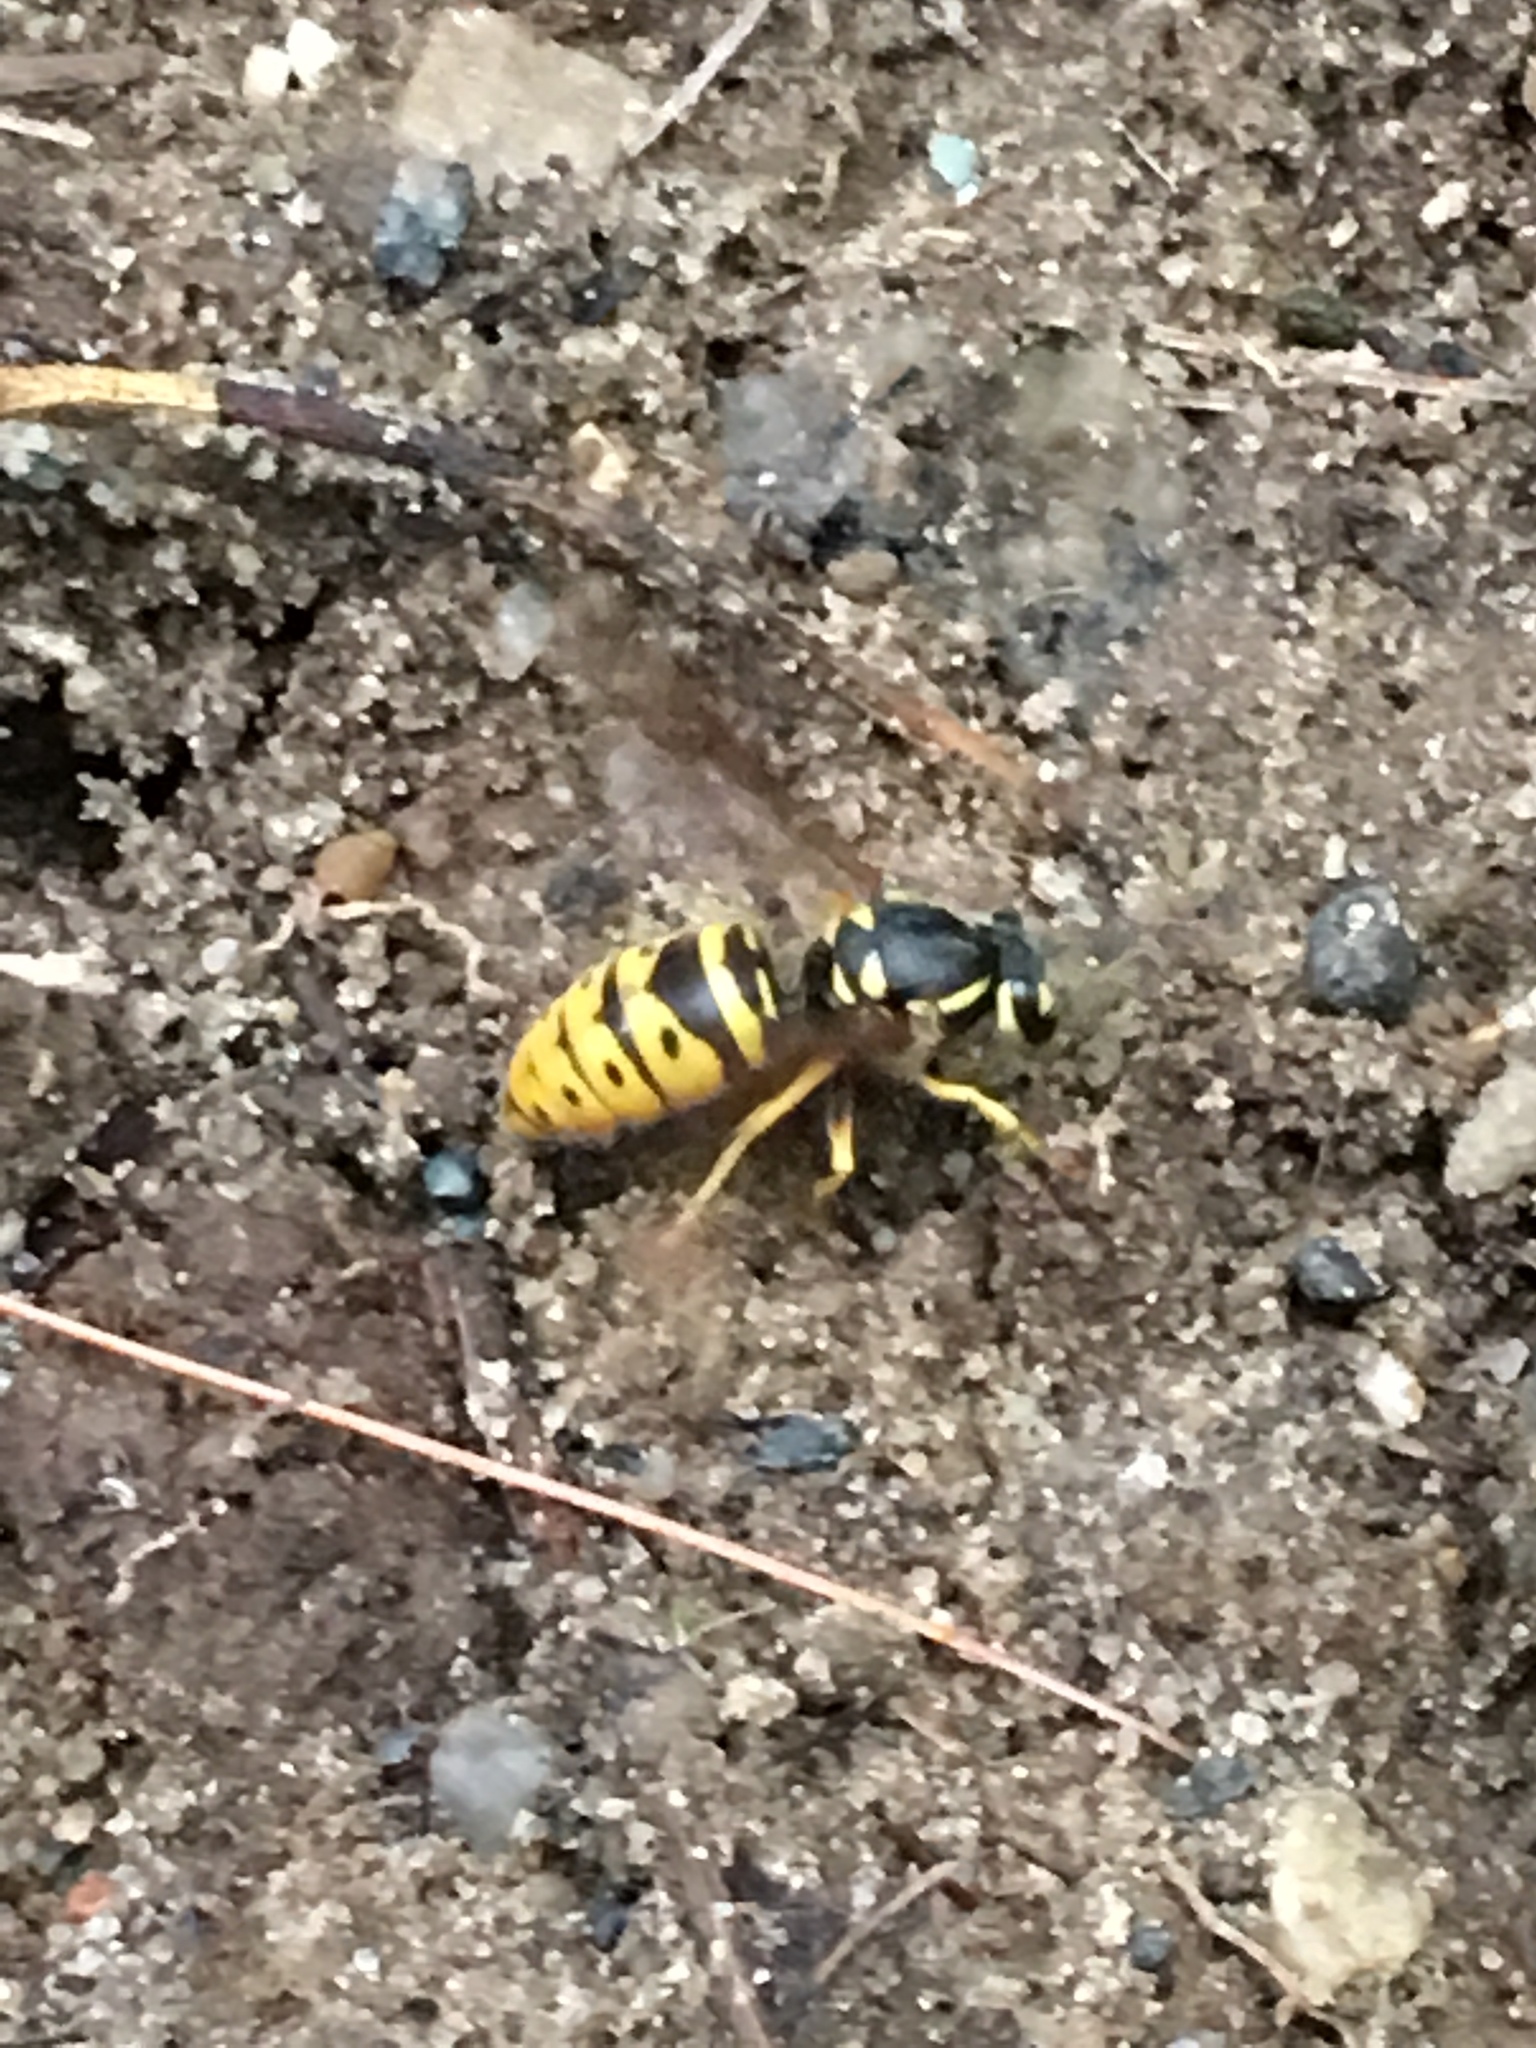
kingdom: Animalia
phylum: Arthropoda
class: Insecta
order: Hymenoptera
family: Vespidae
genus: Vespula
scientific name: Vespula maculifrons
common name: Eastern yellowjacket
